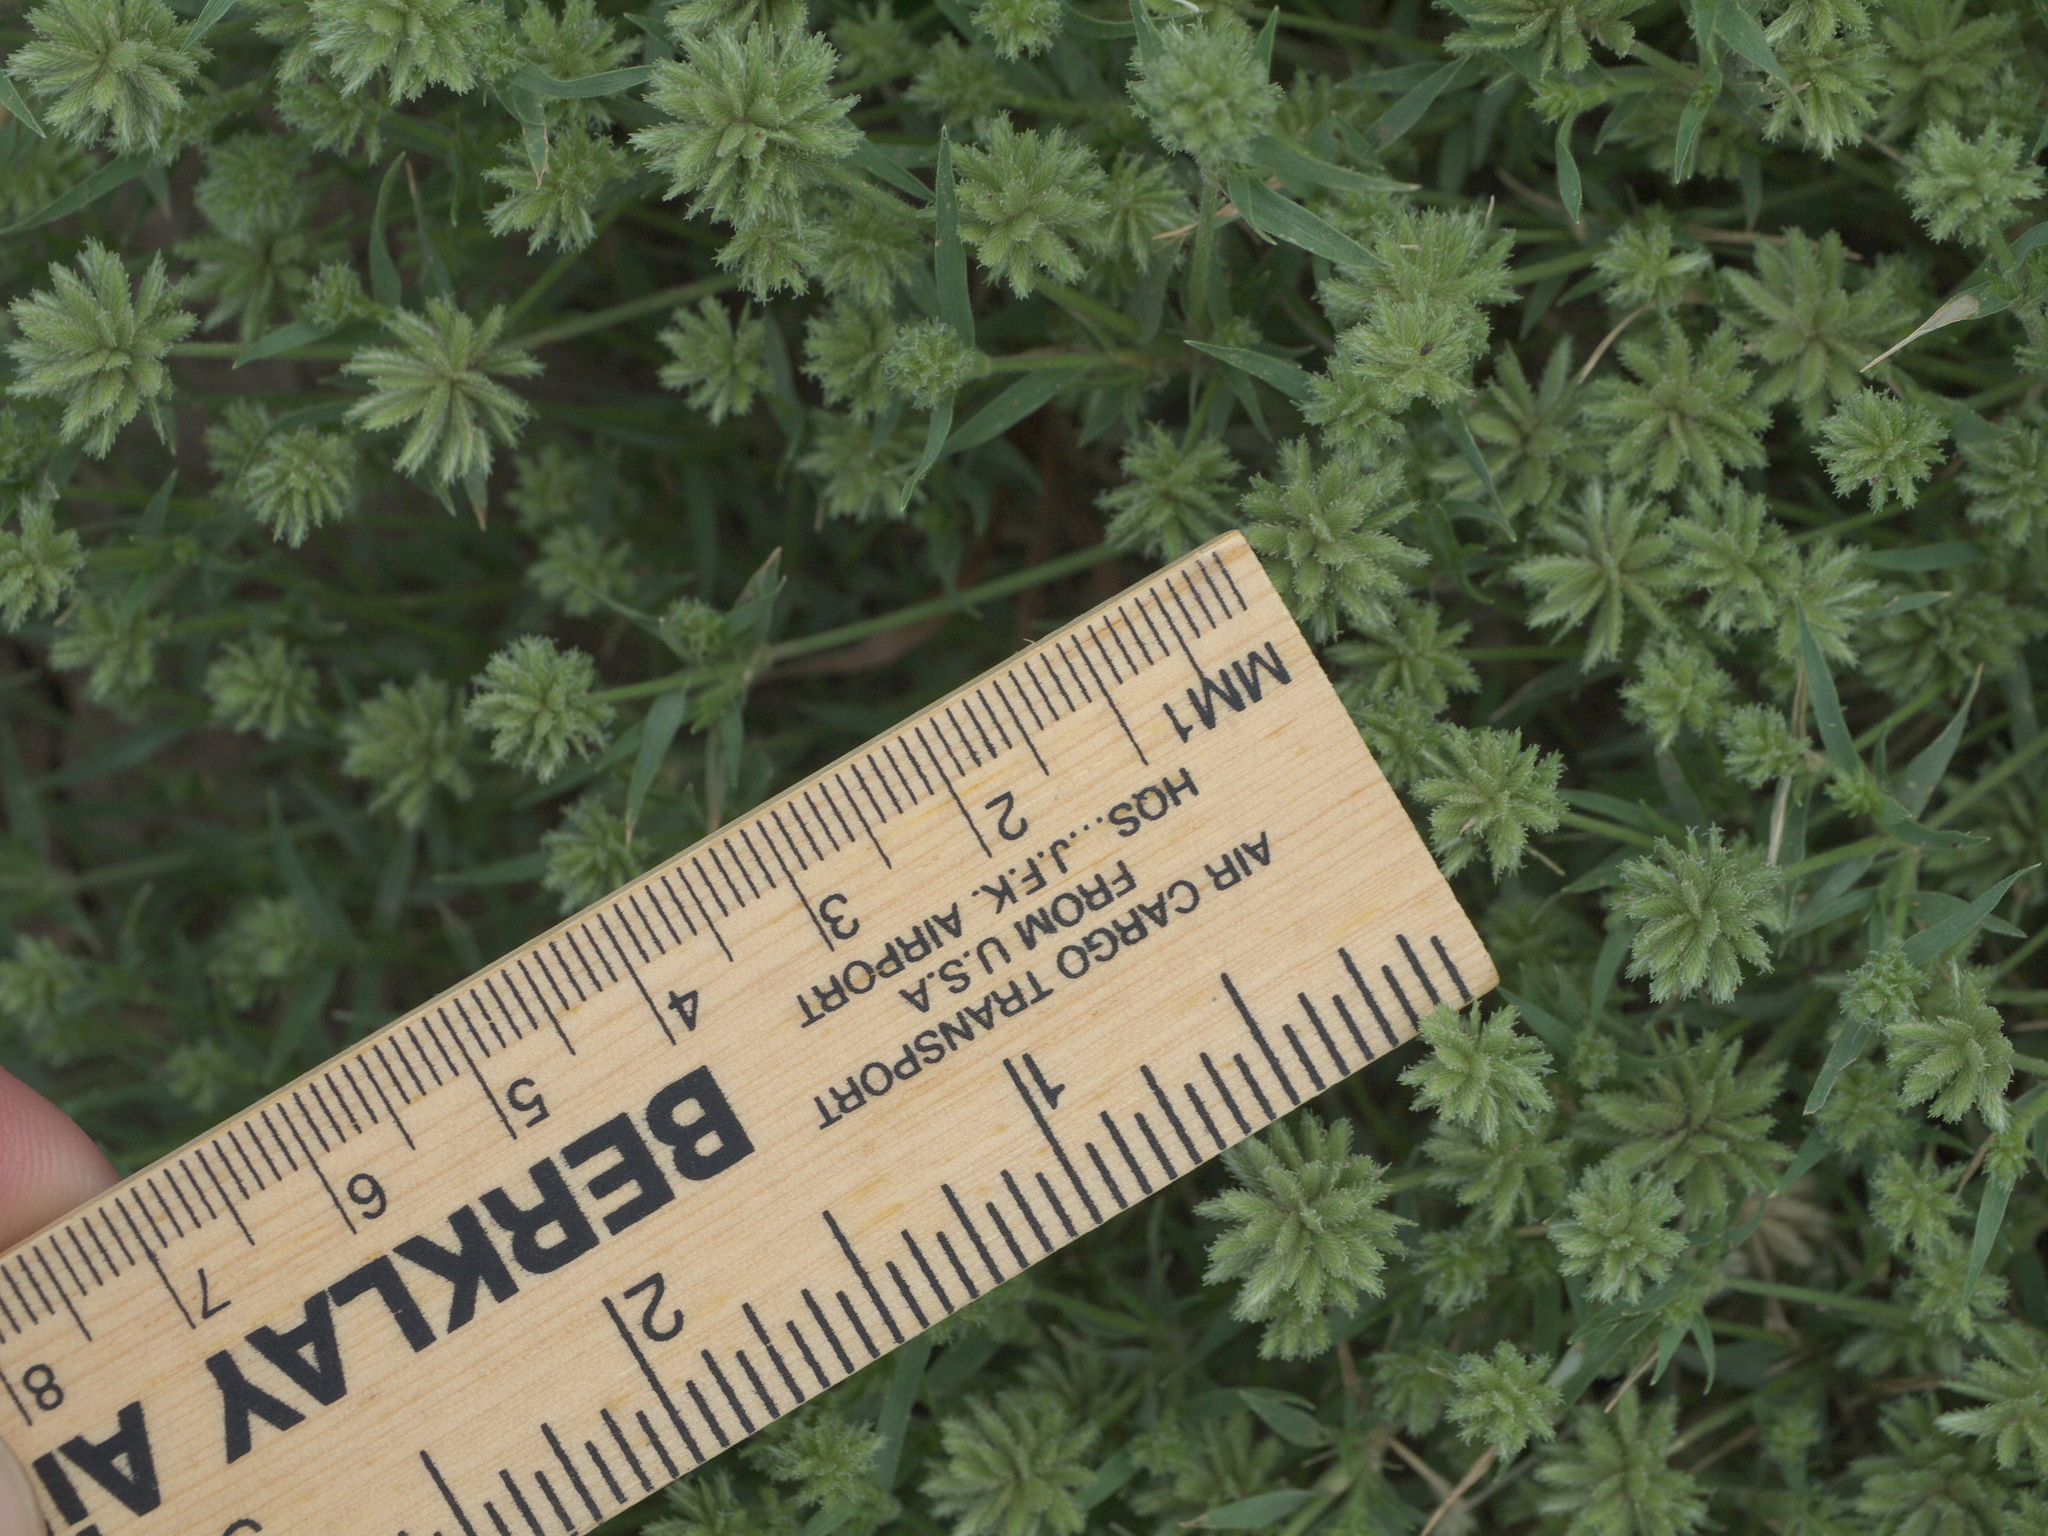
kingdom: Plantae
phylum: Tracheophyta
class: Liliopsida
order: Poales
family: Cyperaceae
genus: Cyperus
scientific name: Cyperus squarrosus
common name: Awned cyperus
